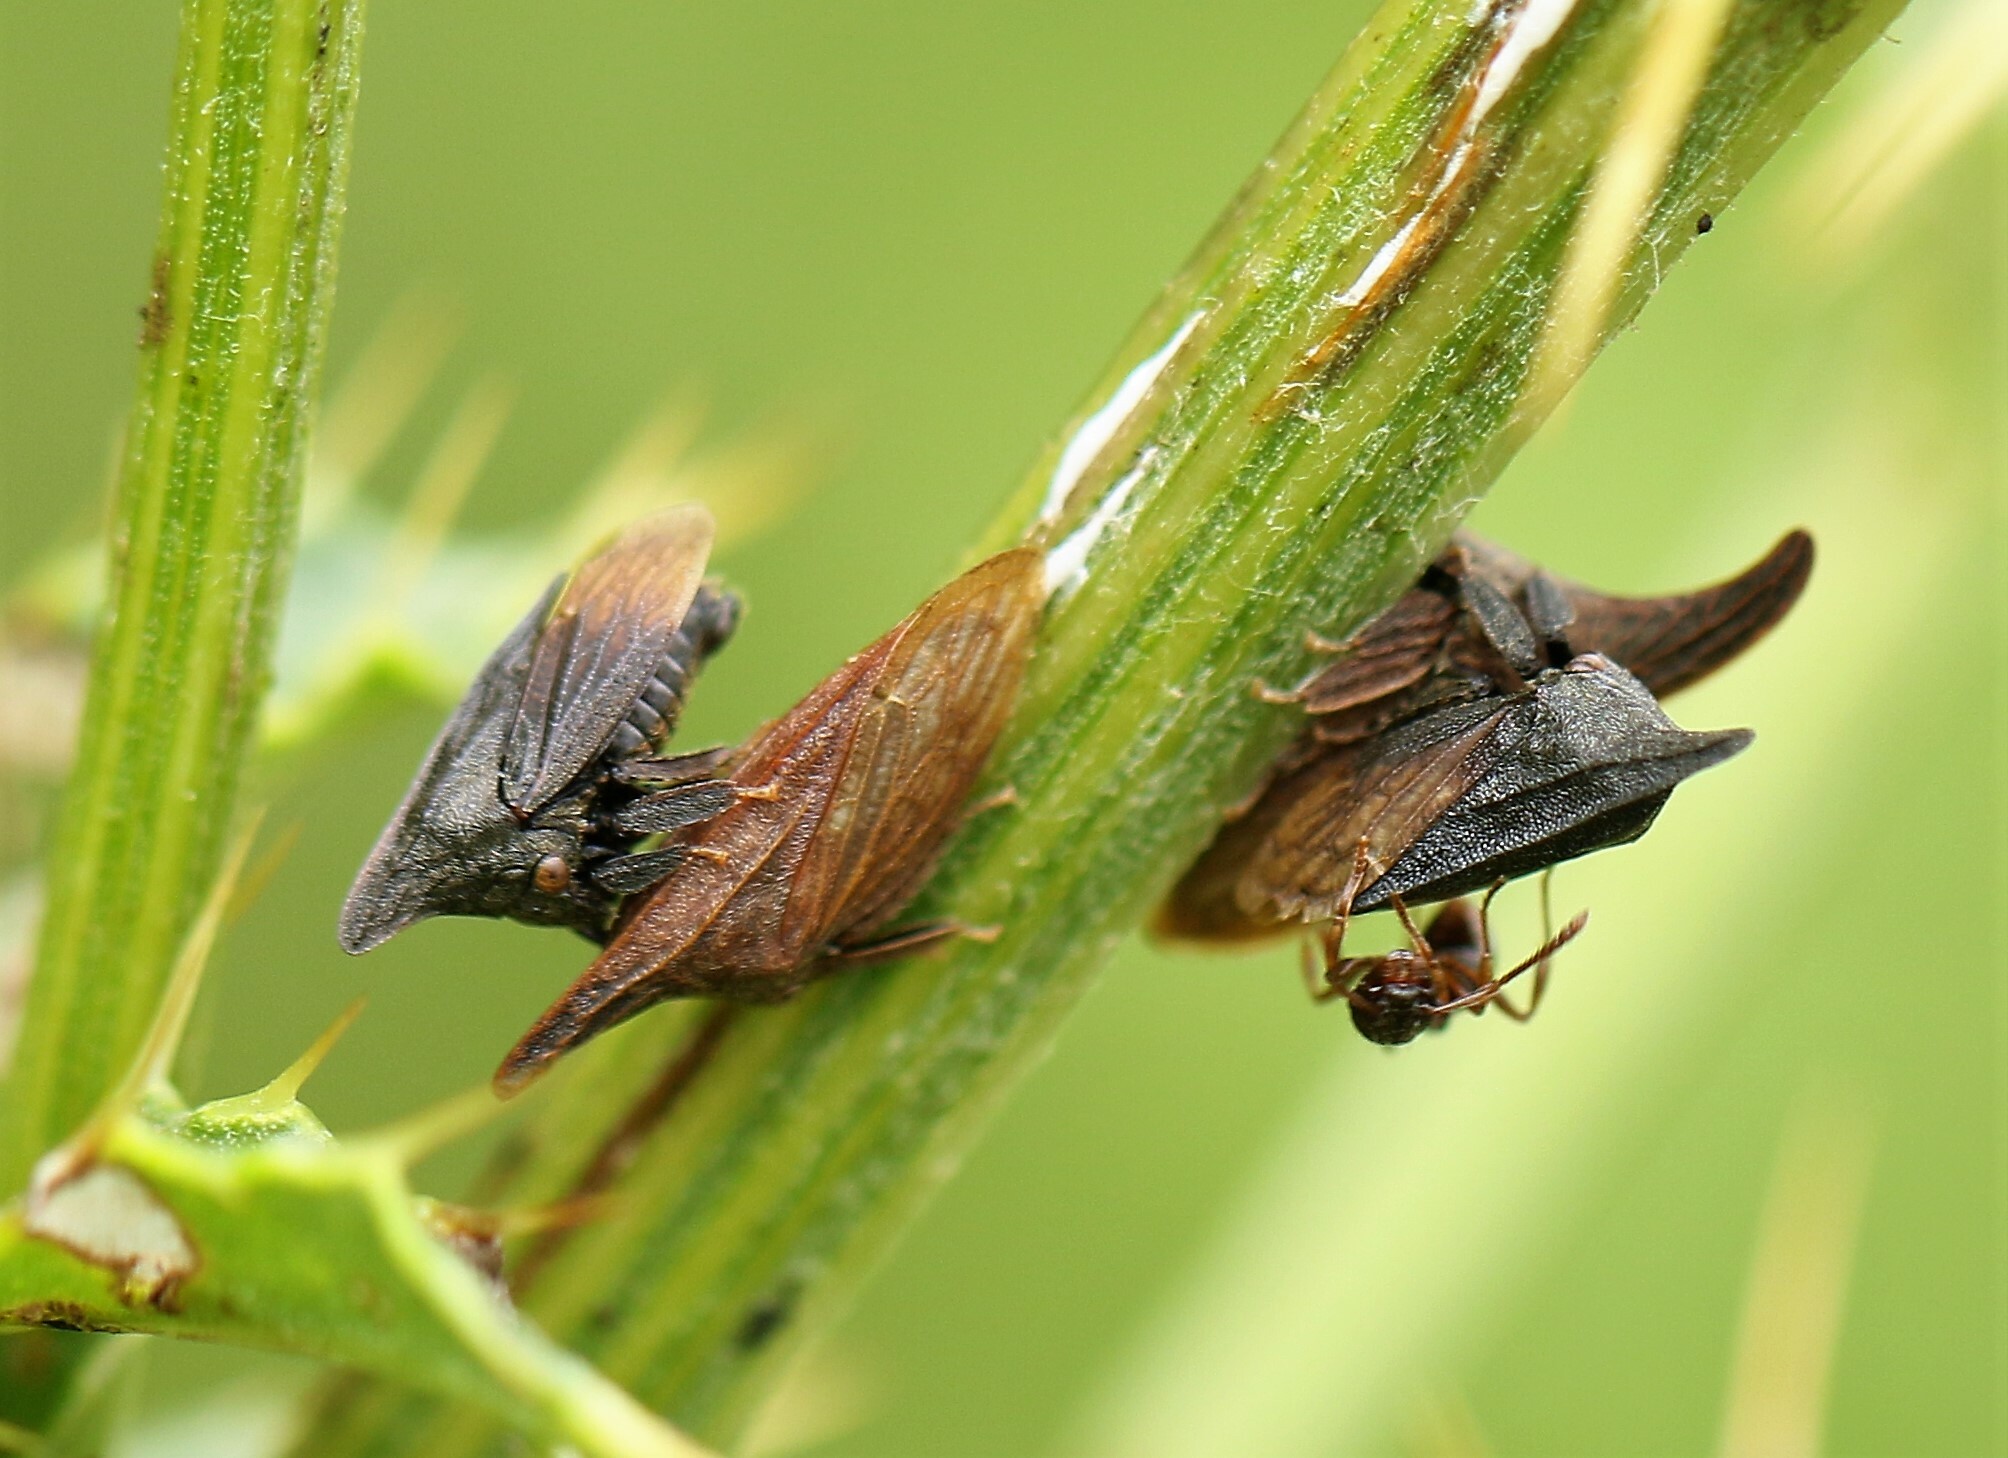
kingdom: Animalia
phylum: Arthropoda
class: Insecta
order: Hemiptera
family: Membracidae
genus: Enchenopa
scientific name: Enchenopa latipes
